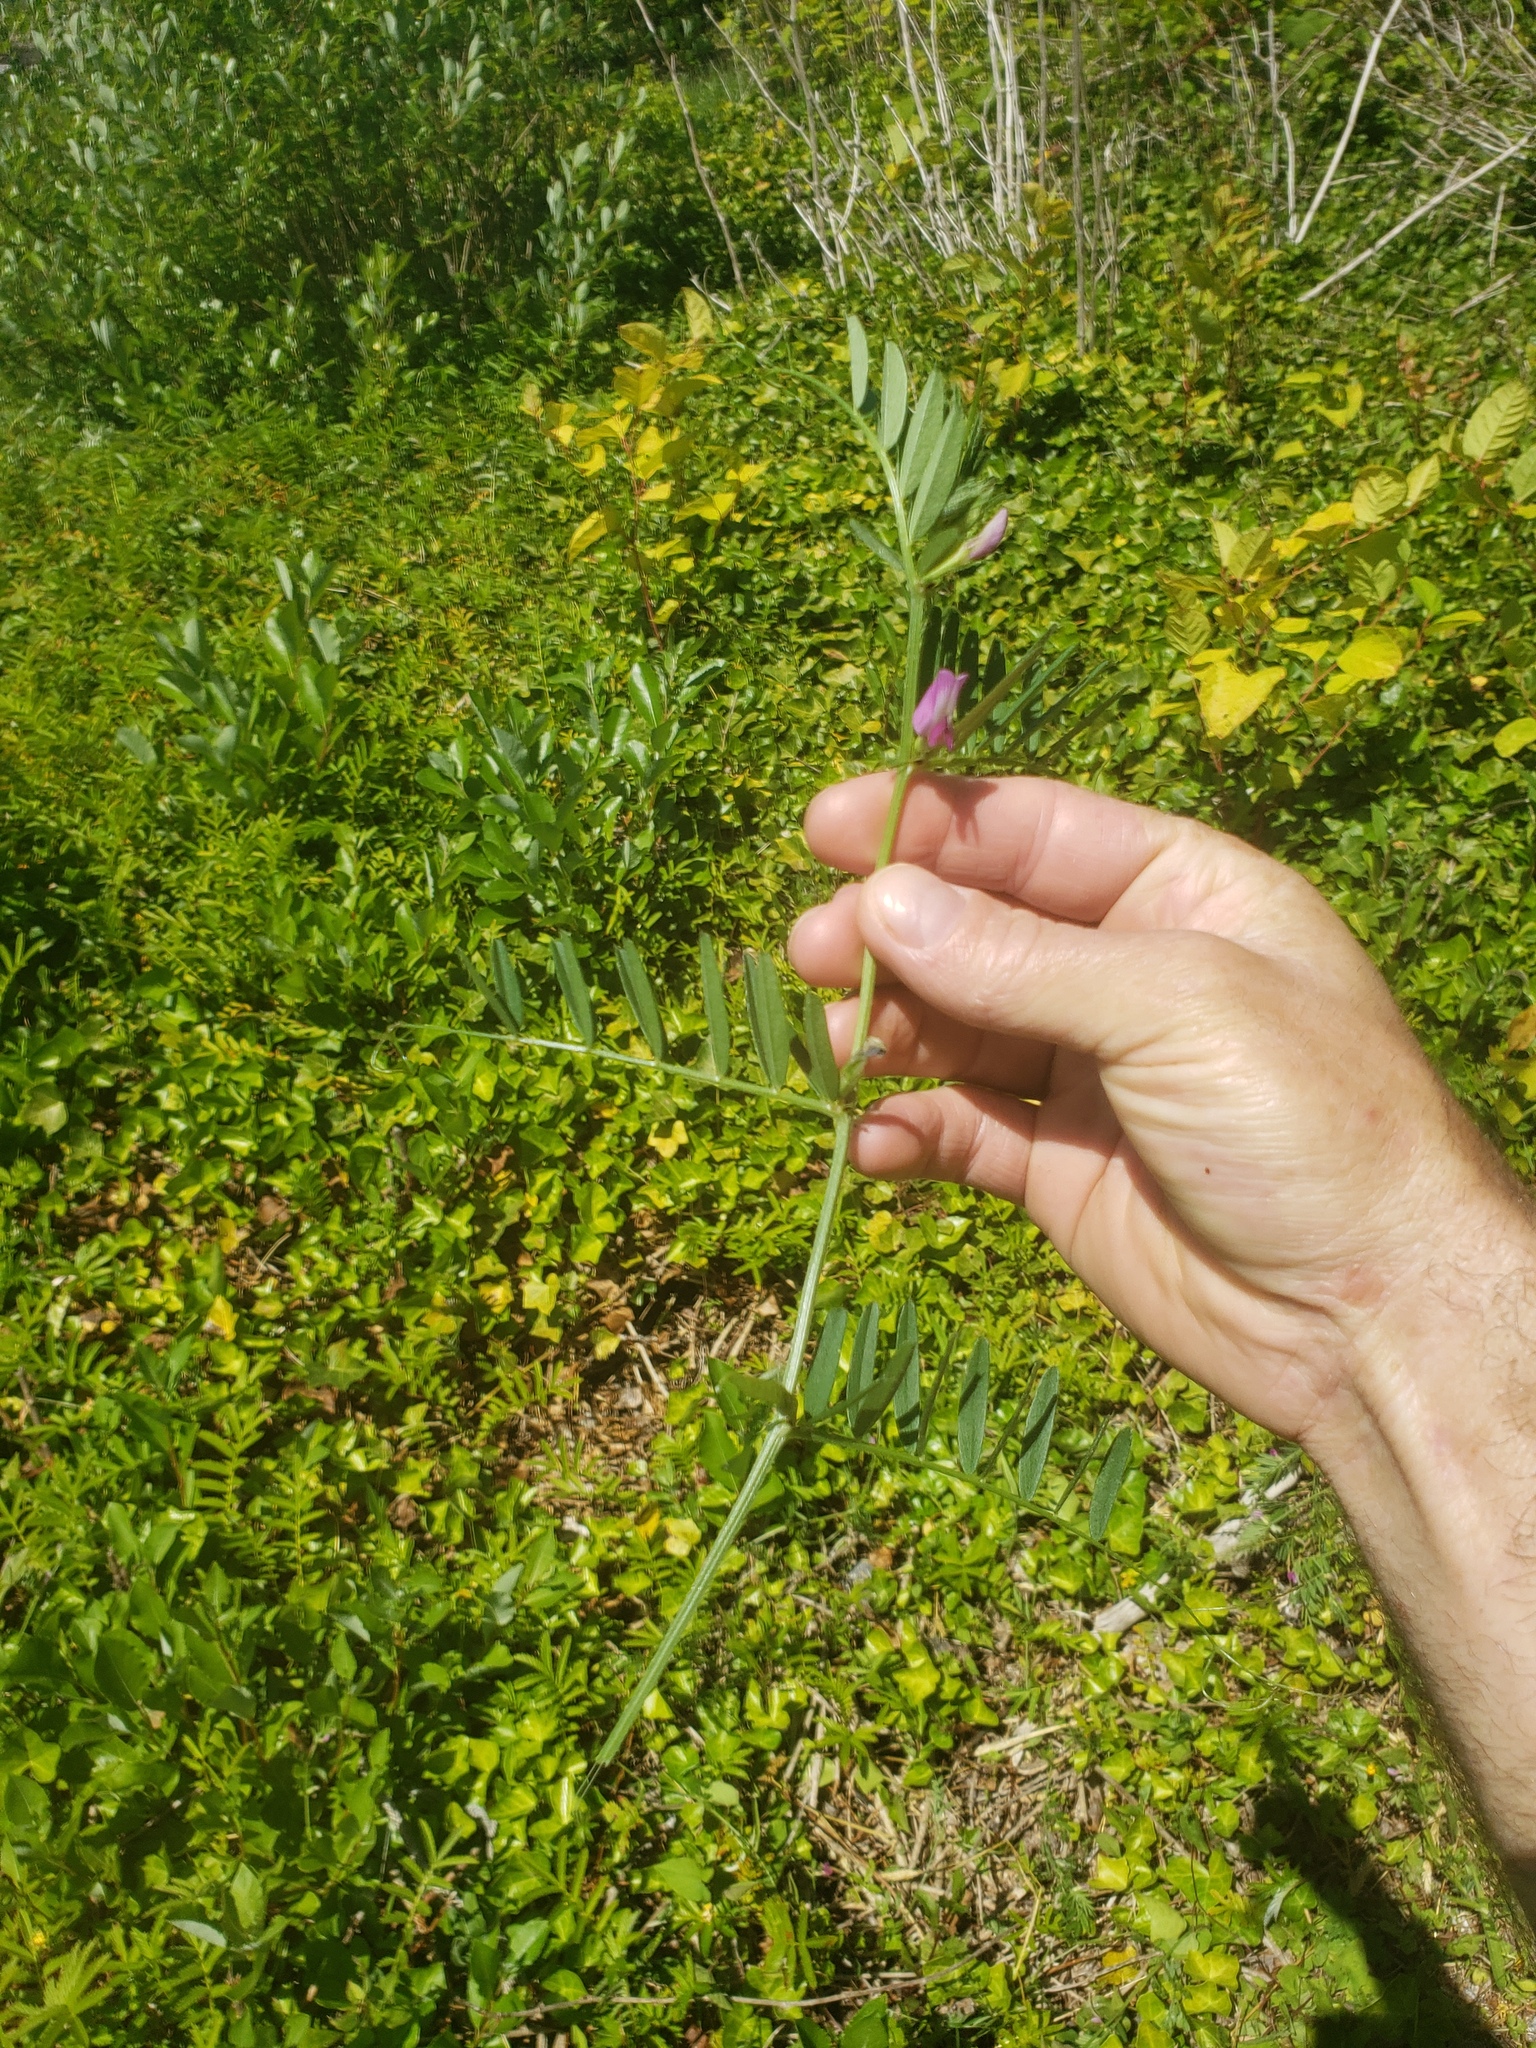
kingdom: Plantae
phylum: Tracheophyta
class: Magnoliopsida
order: Fabales
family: Fabaceae
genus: Vicia
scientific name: Vicia sativa
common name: Garden vetch
